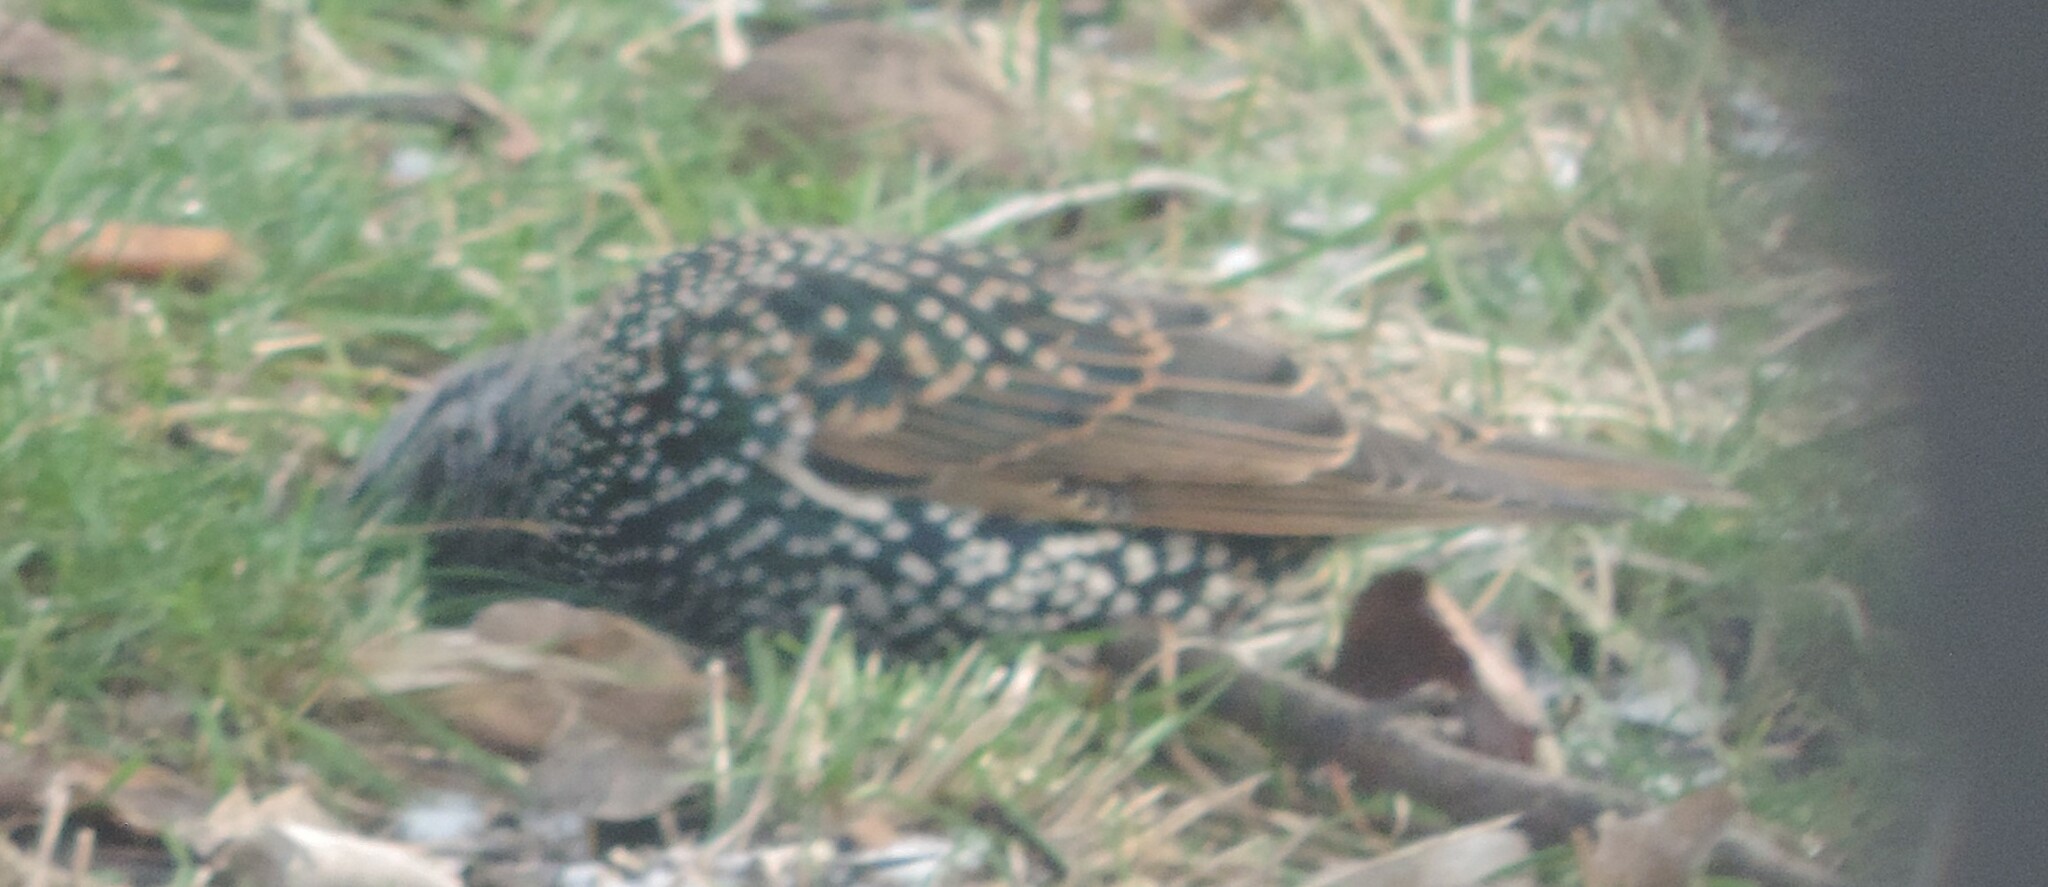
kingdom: Animalia
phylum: Chordata
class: Aves
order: Passeriformes
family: Sturnidae
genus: Sturnus
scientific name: Sturnus vulgaris
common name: Common starling
